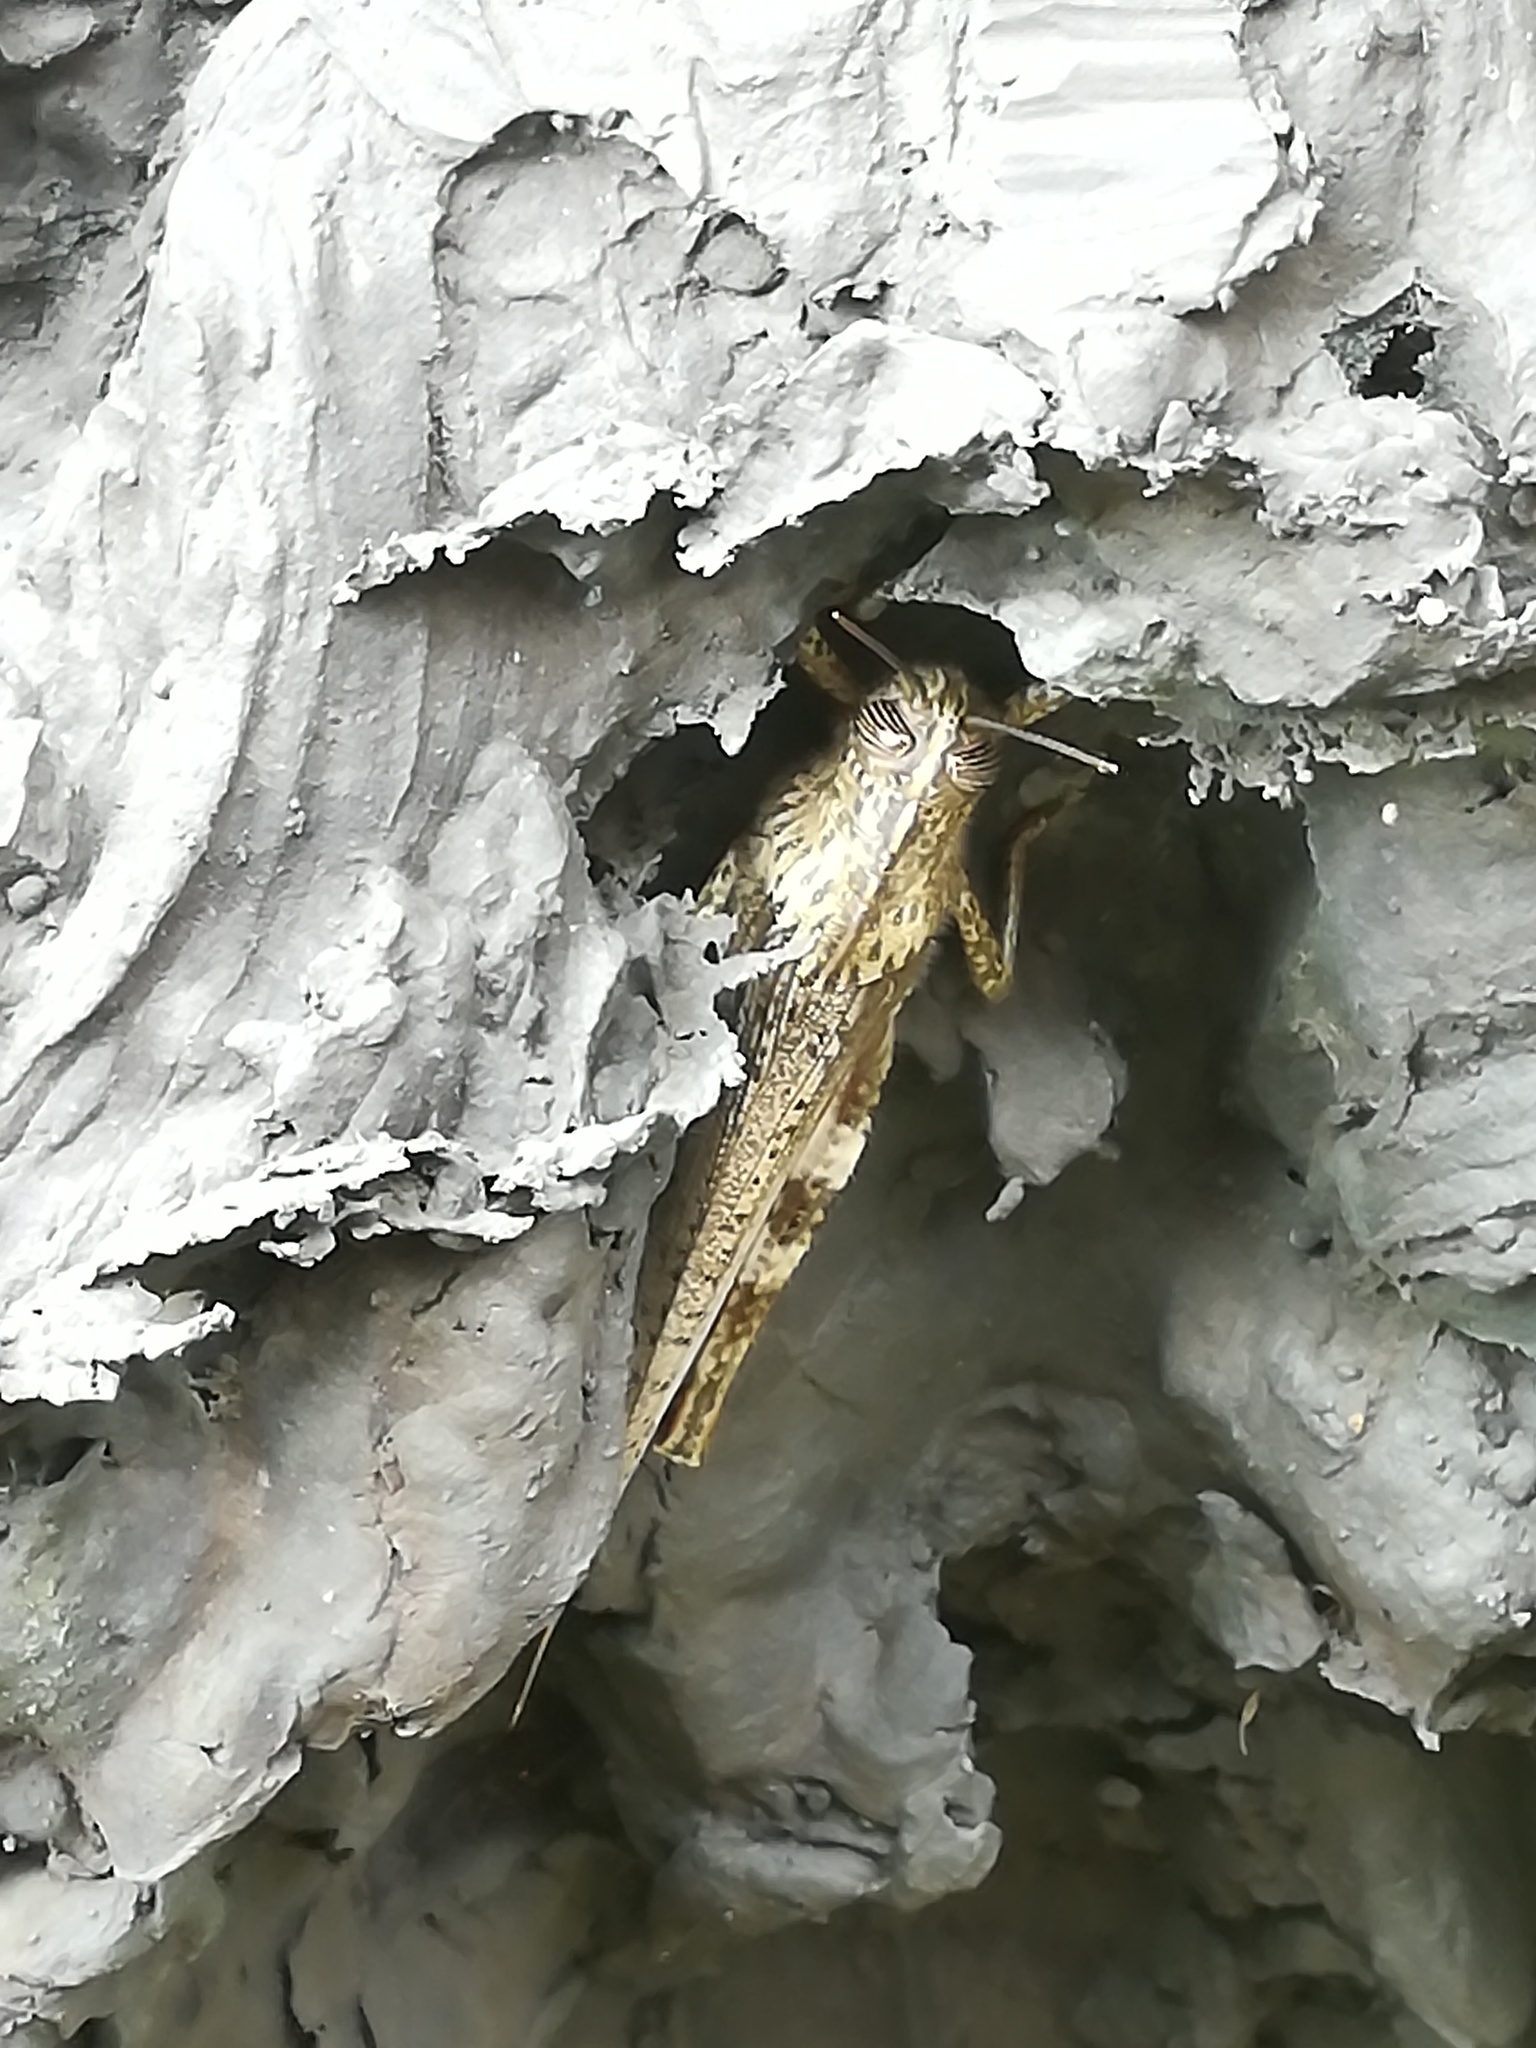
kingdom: Animalia
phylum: Arthropoda
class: Insecta
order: Orthoptera
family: Acrididae
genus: Anacridium
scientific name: Anacridium aegyptium
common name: Egyptian grasshopper
